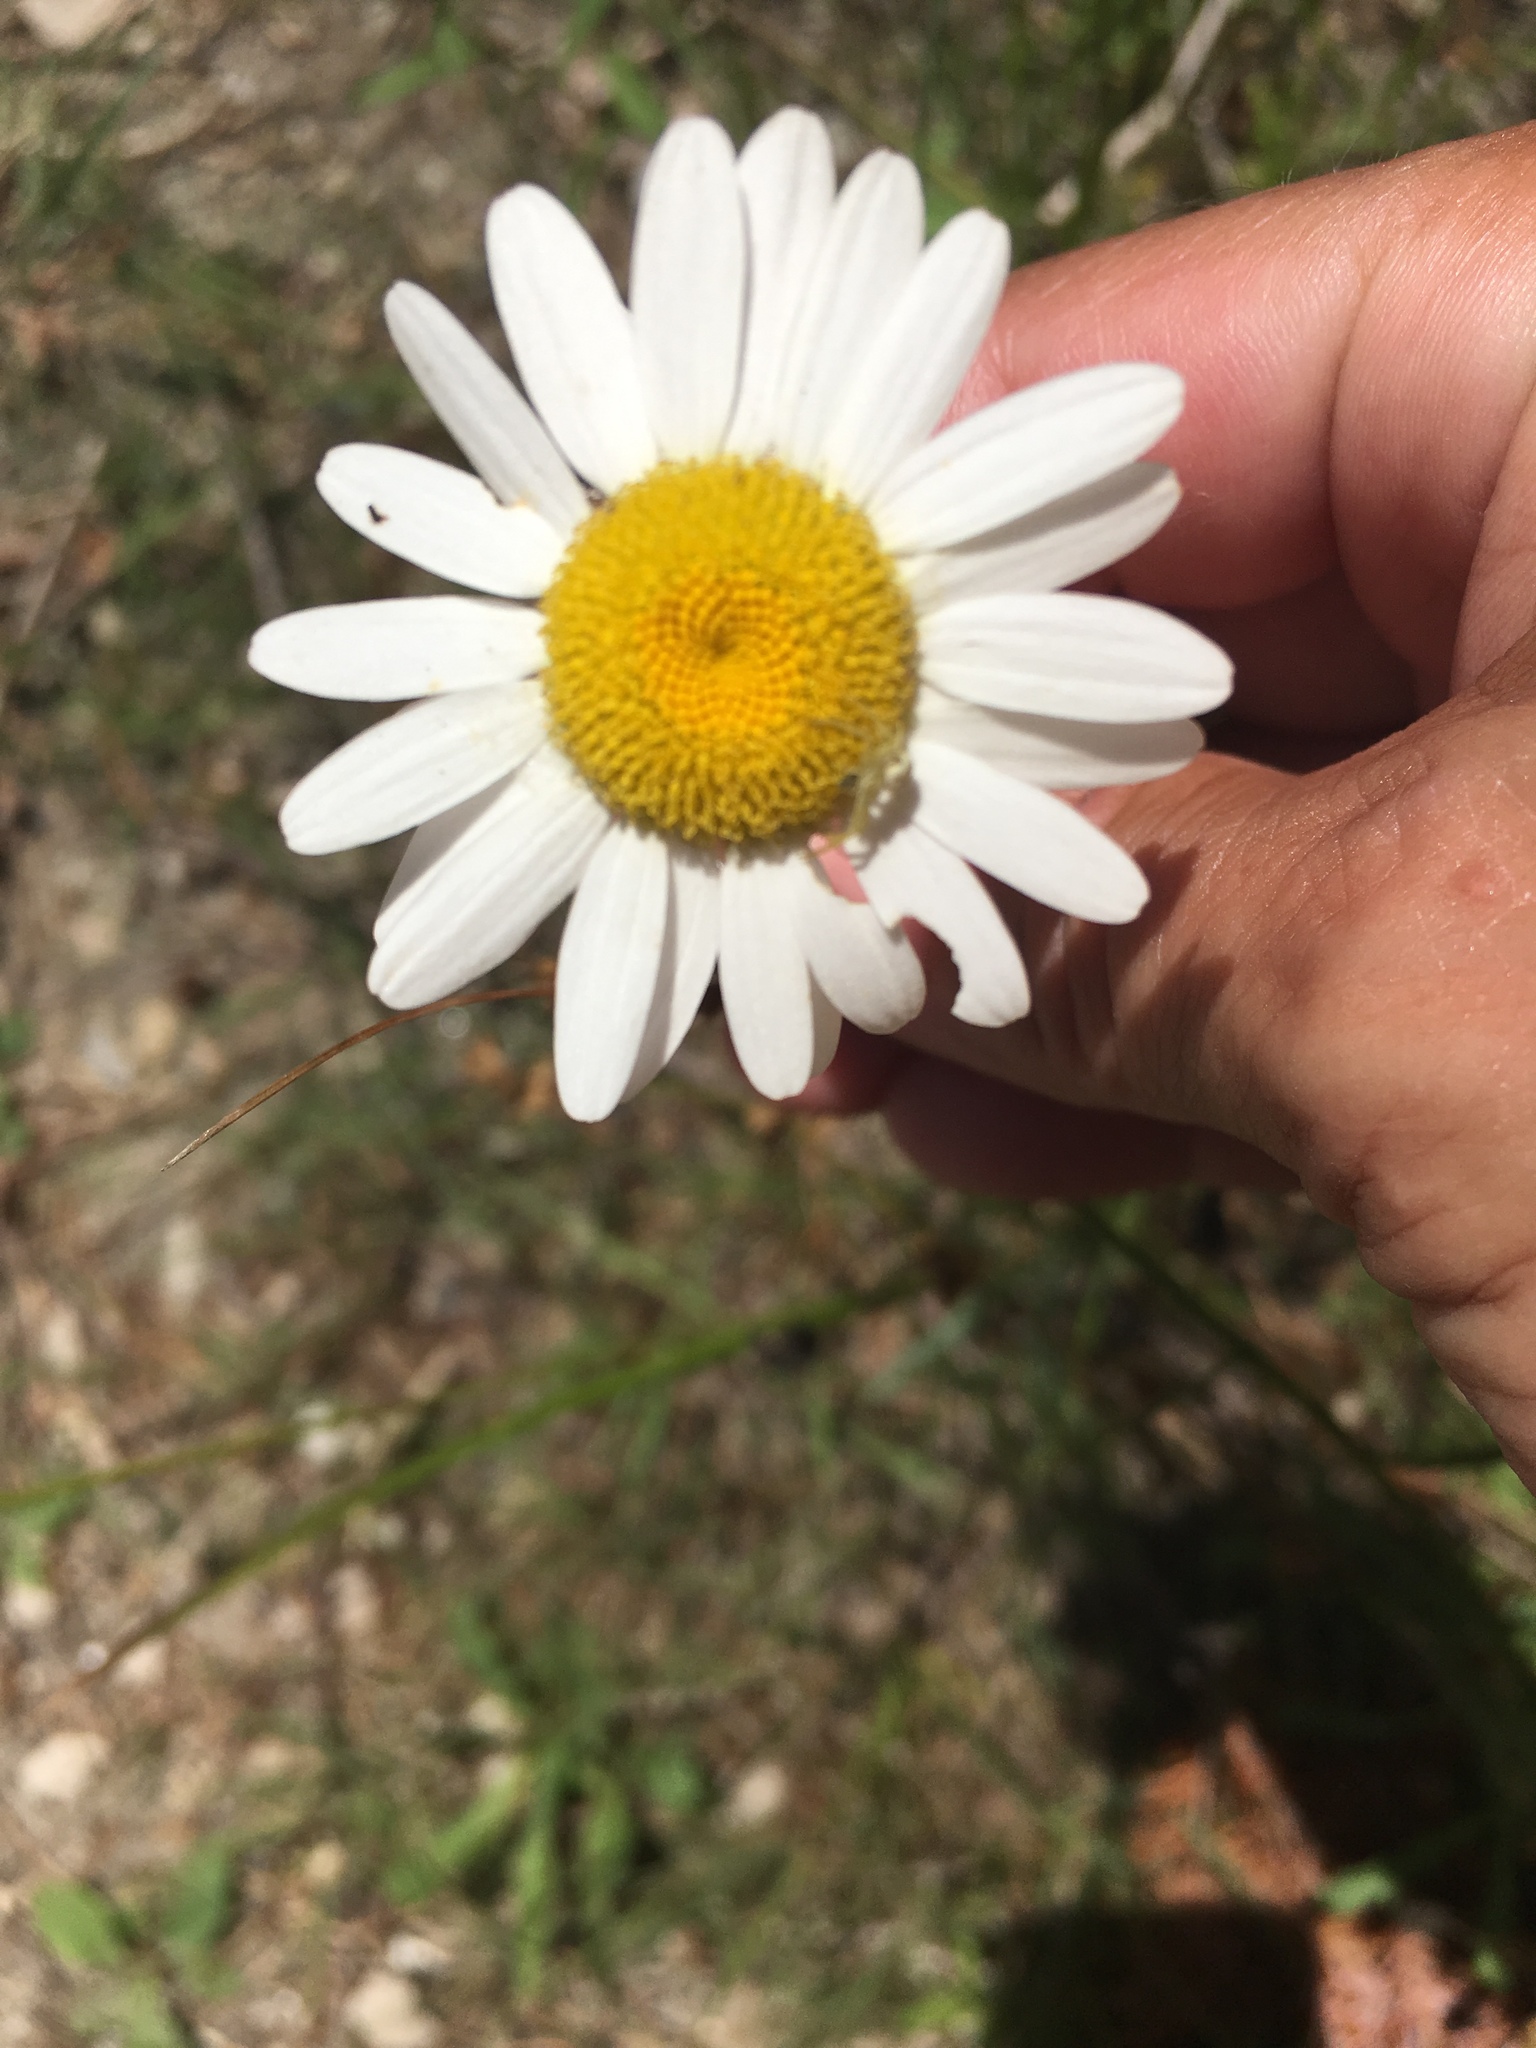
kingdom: Plantae
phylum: Tracheophyta
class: Magnoliopsida
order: Asterales
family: Asteraceae
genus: Leucanthemum
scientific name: Leucanthemum vulgare
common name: Oxeye daisy
